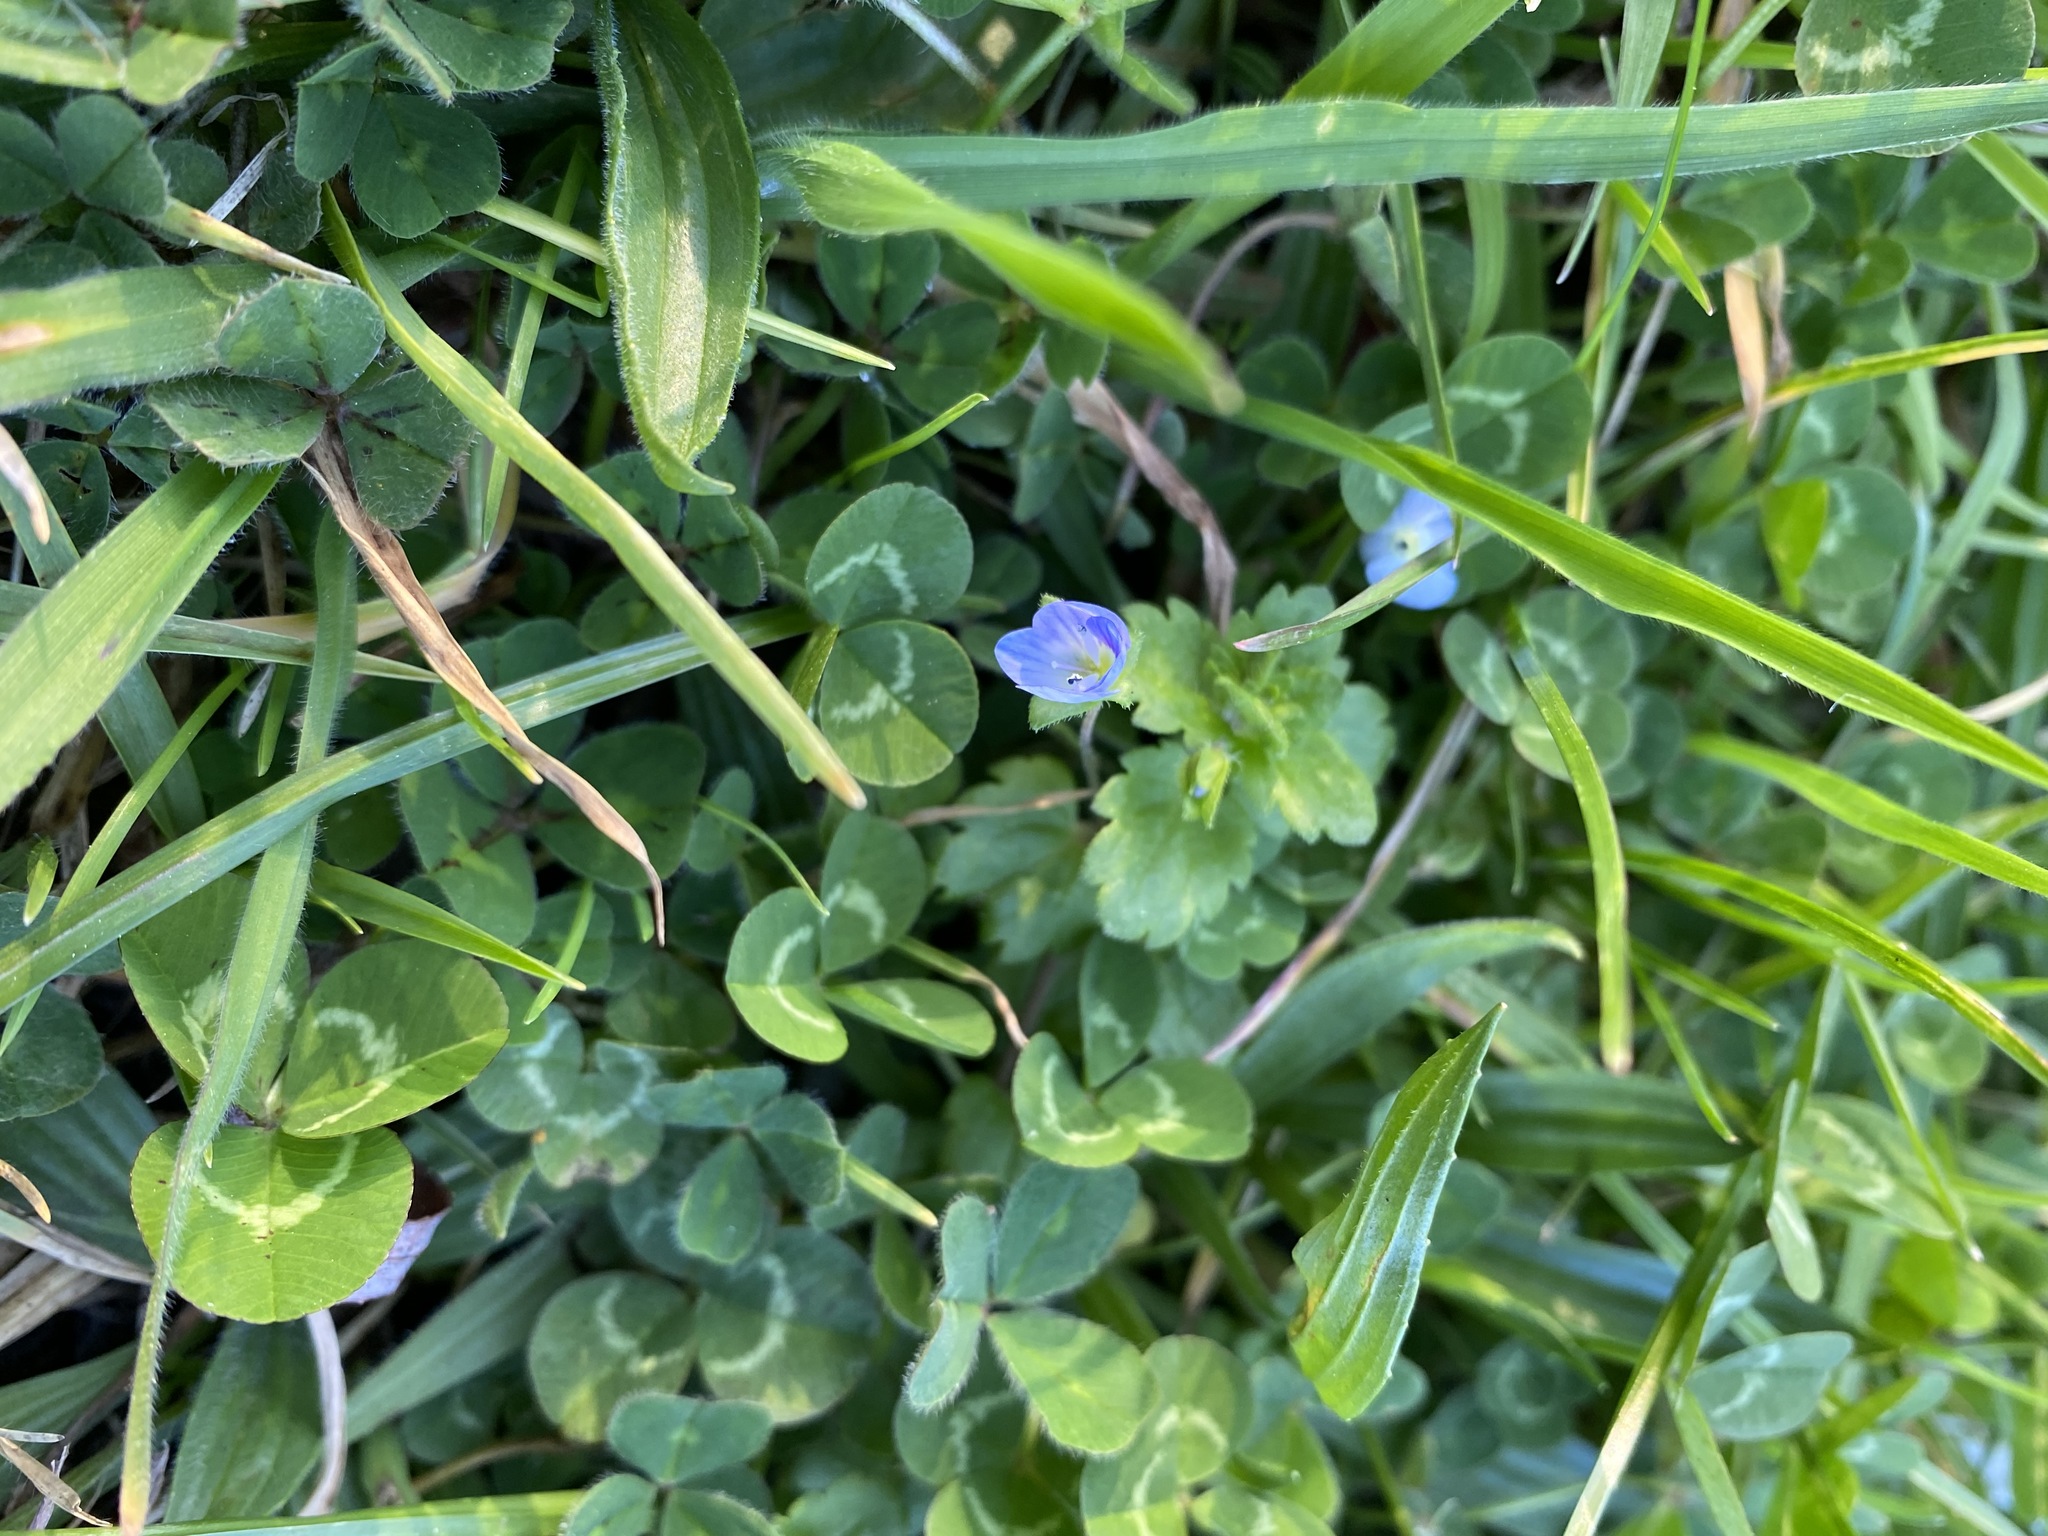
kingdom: Plantae
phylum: Tracheophyta
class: Magnoliopsida
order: Lamiales
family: Plantaginaceae
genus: Veronica
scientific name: Veronica persica
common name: Common field-speedwell
